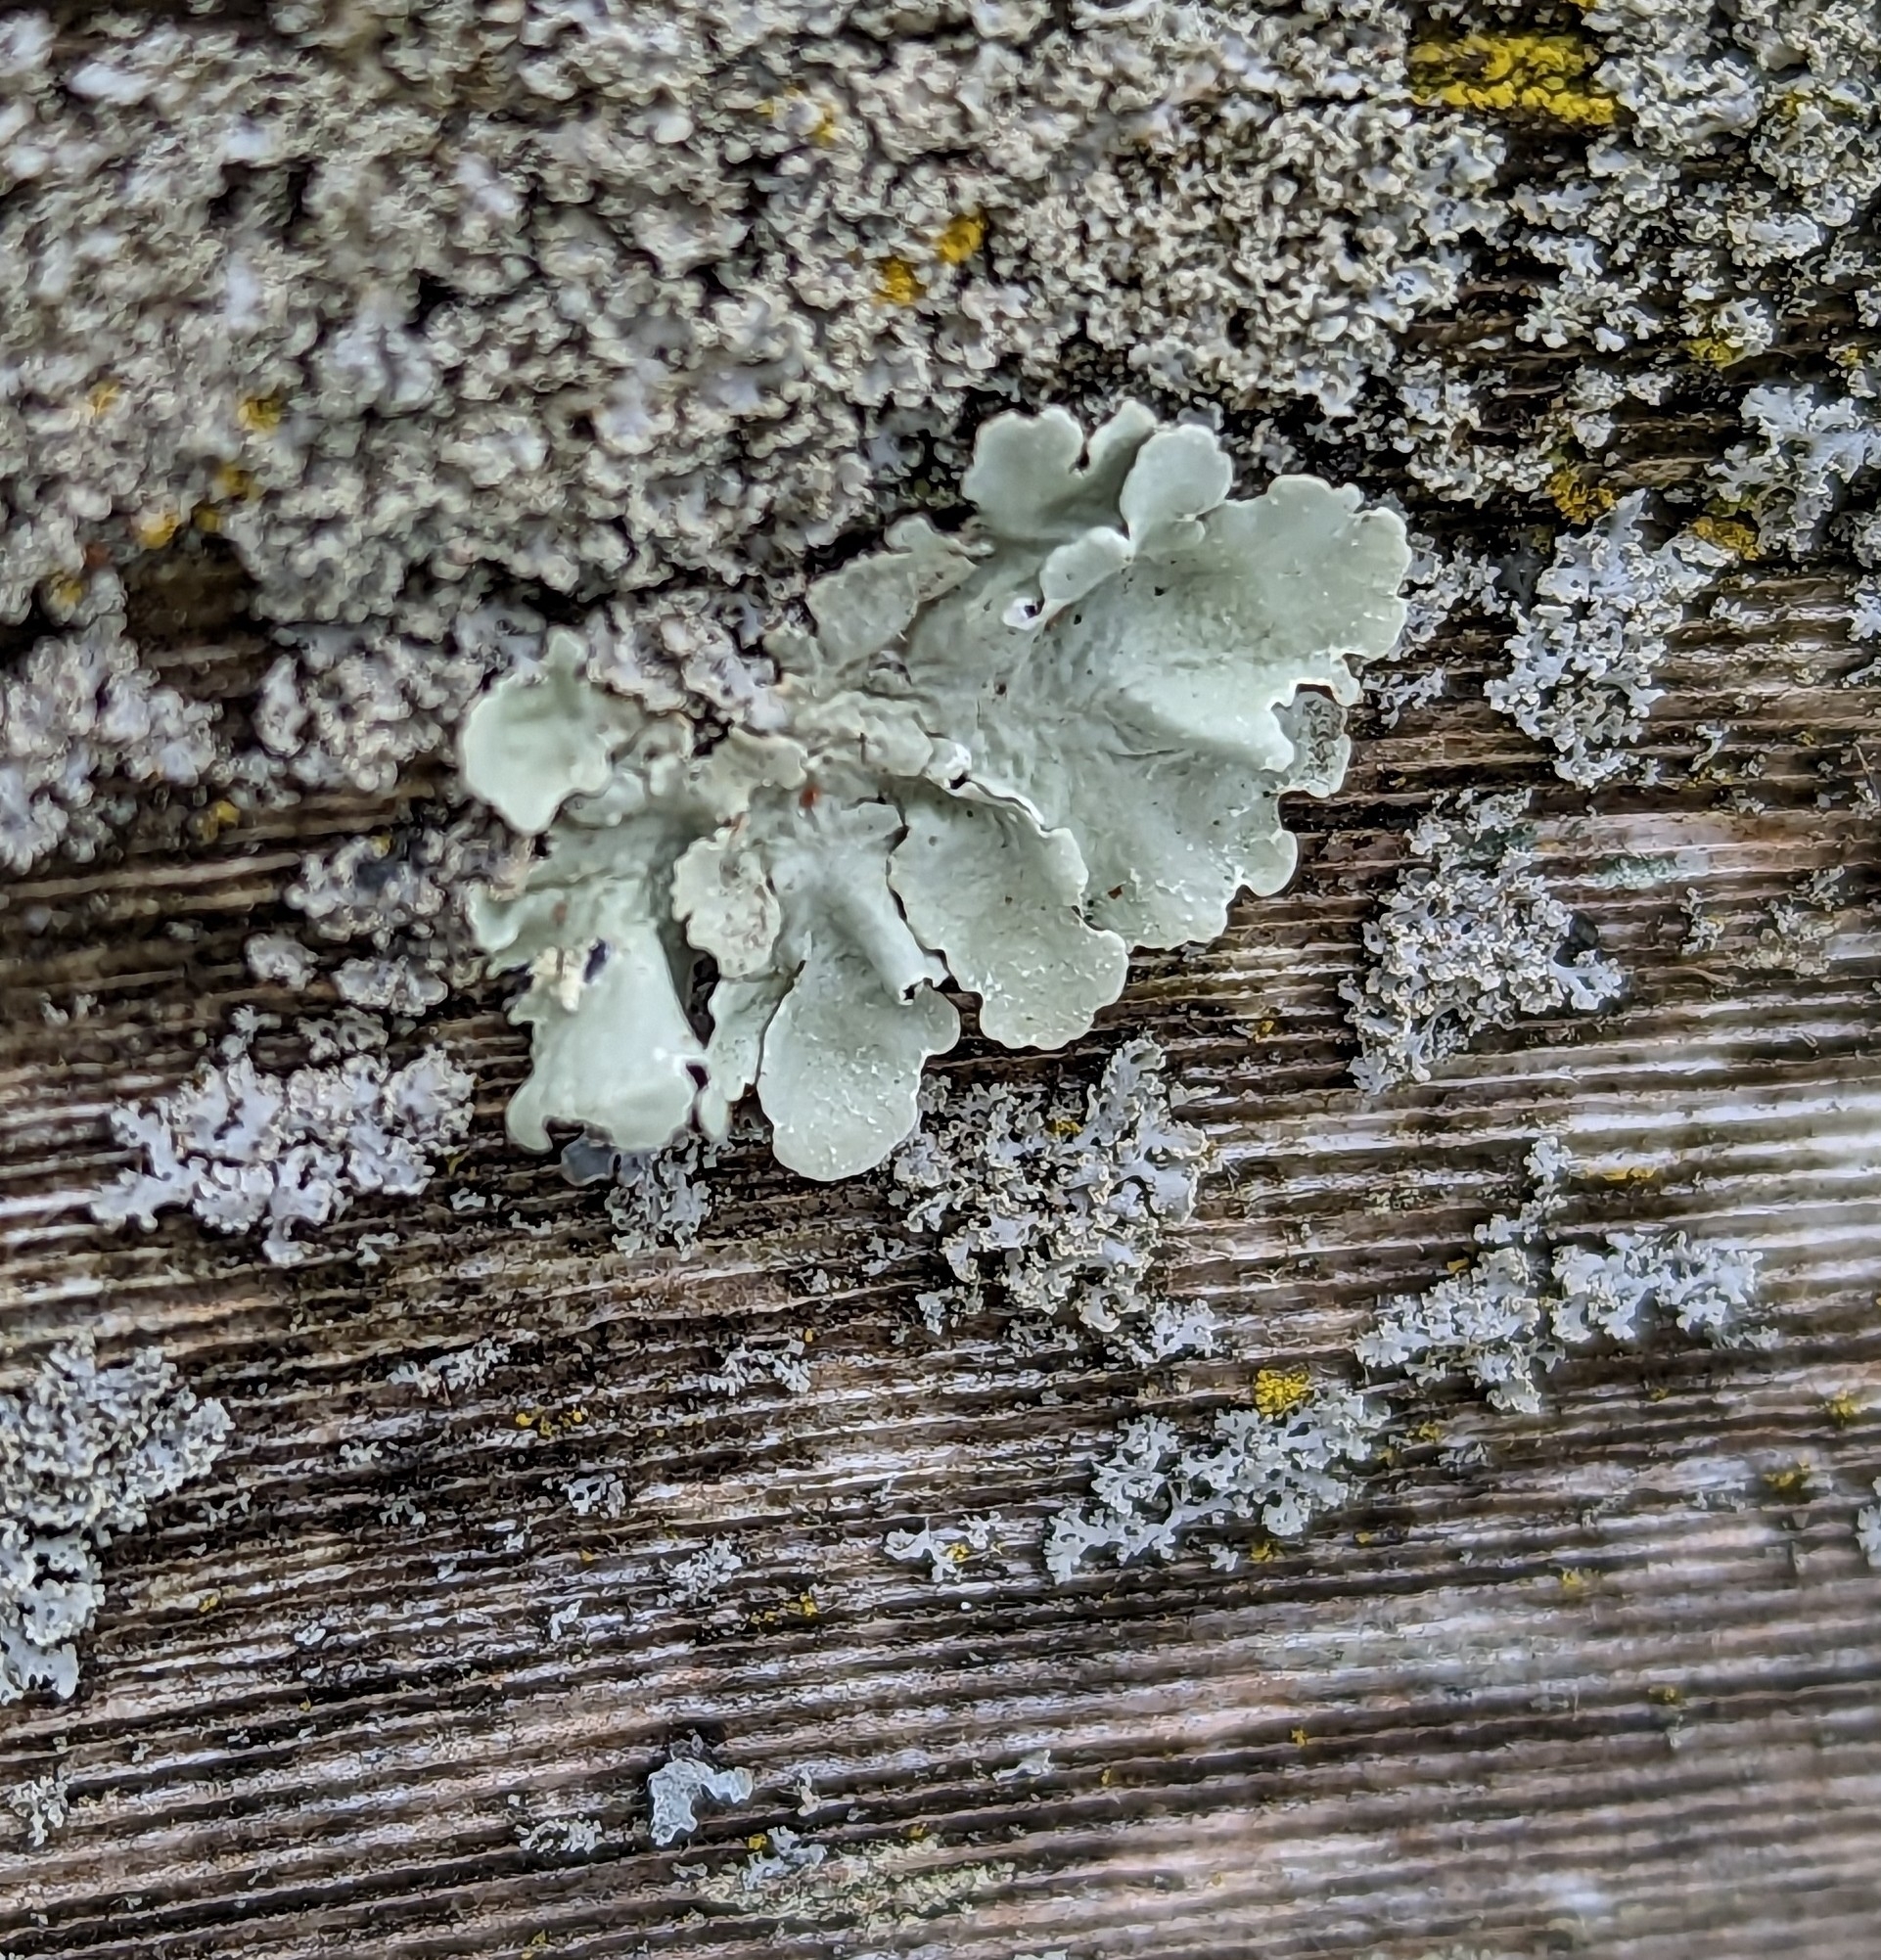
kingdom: Fungi
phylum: Ascomycota
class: Lecanoromycetes
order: Lecanorales
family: Parmeliaceae
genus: Flavoparmelia
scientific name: Flavoparmelia caperata
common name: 40-mile per hour lichen
